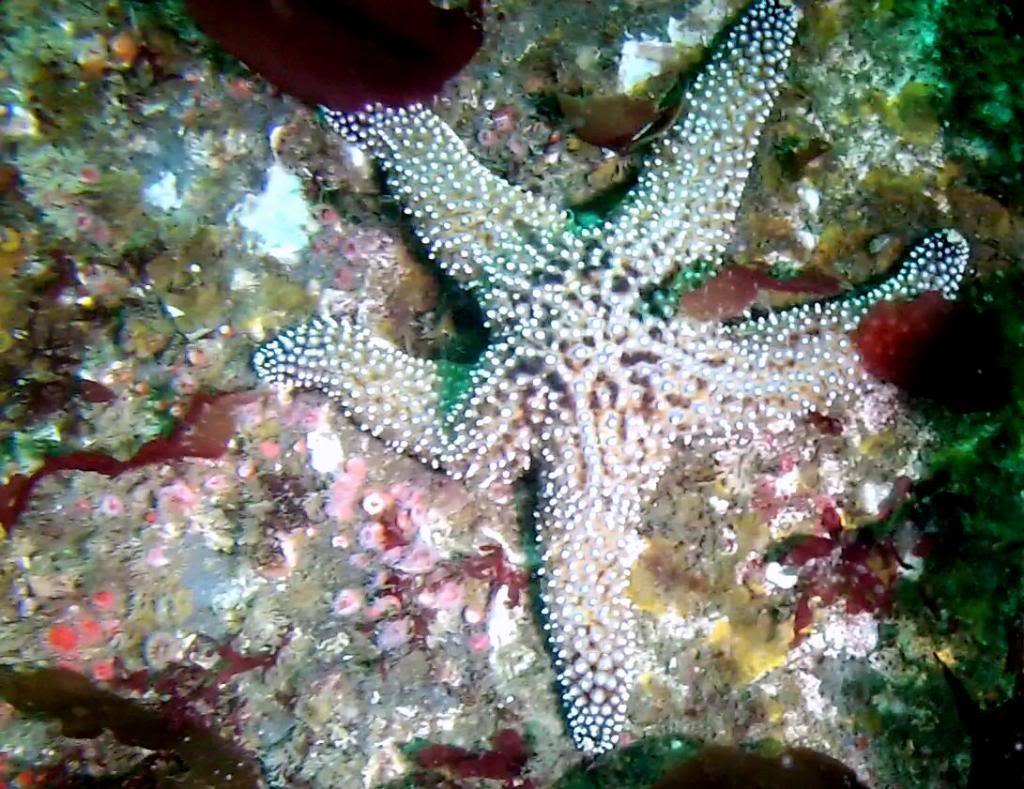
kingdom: Animalia
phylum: Echinodermata
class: Asteroidea
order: Forcipulatida
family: Asteriidae
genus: Pisaster
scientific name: Pisaster giganteus
